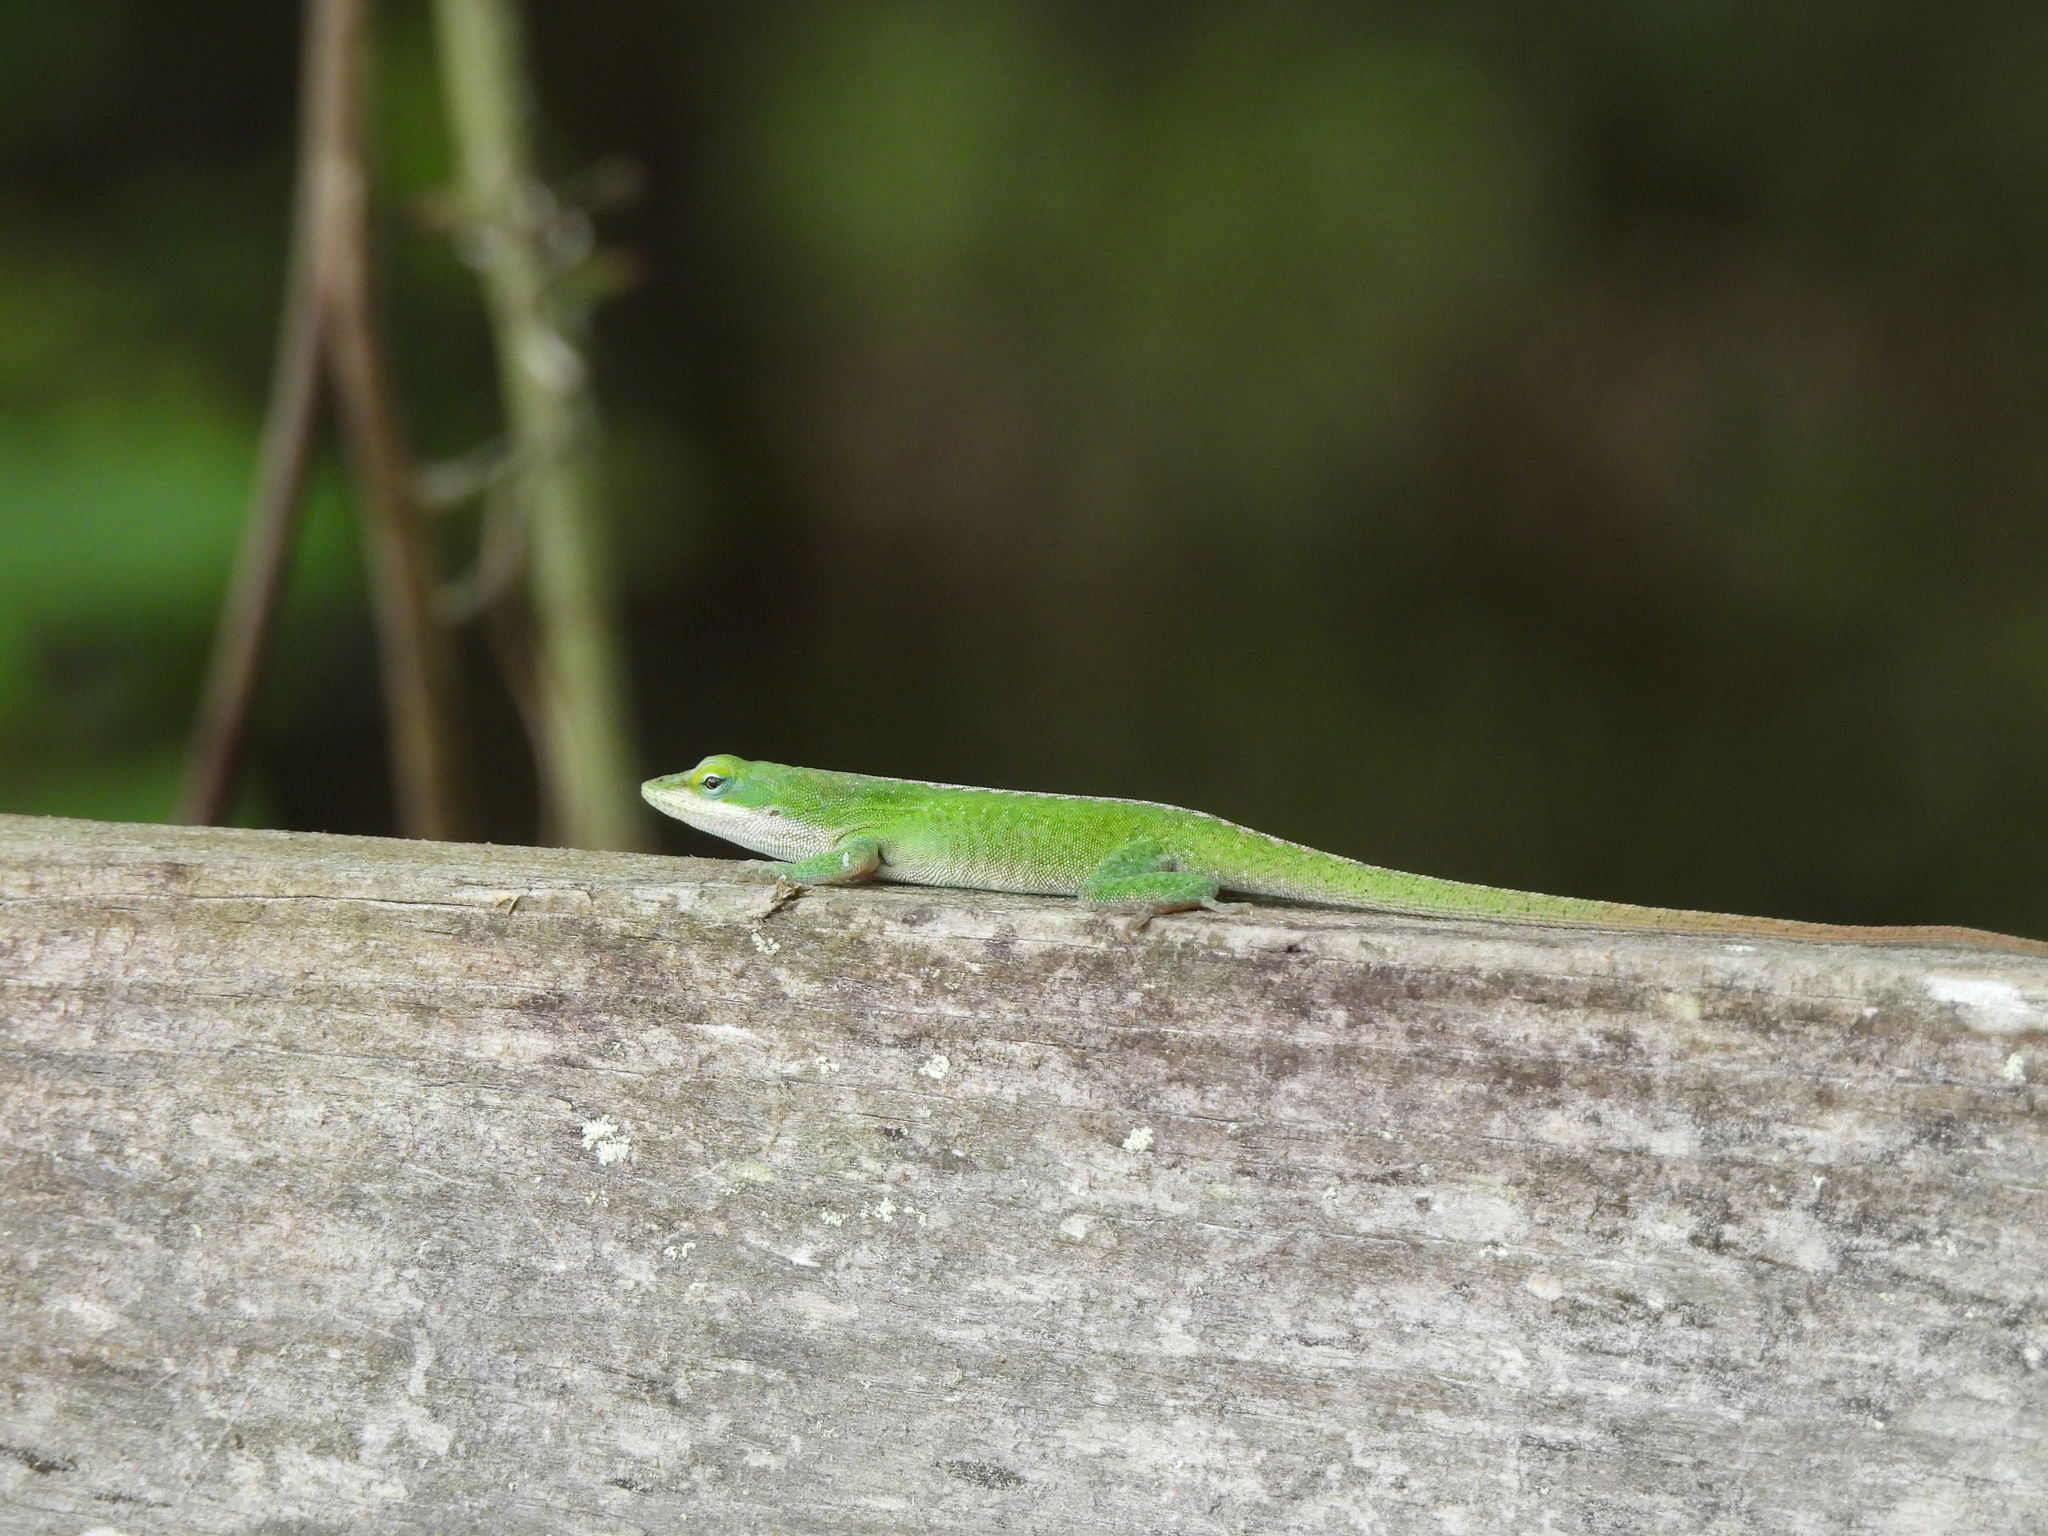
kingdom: Animalia
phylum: Chordata
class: Squamata
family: Dactyloidae
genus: Anolis
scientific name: Anolis carolinensis
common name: Green anole
